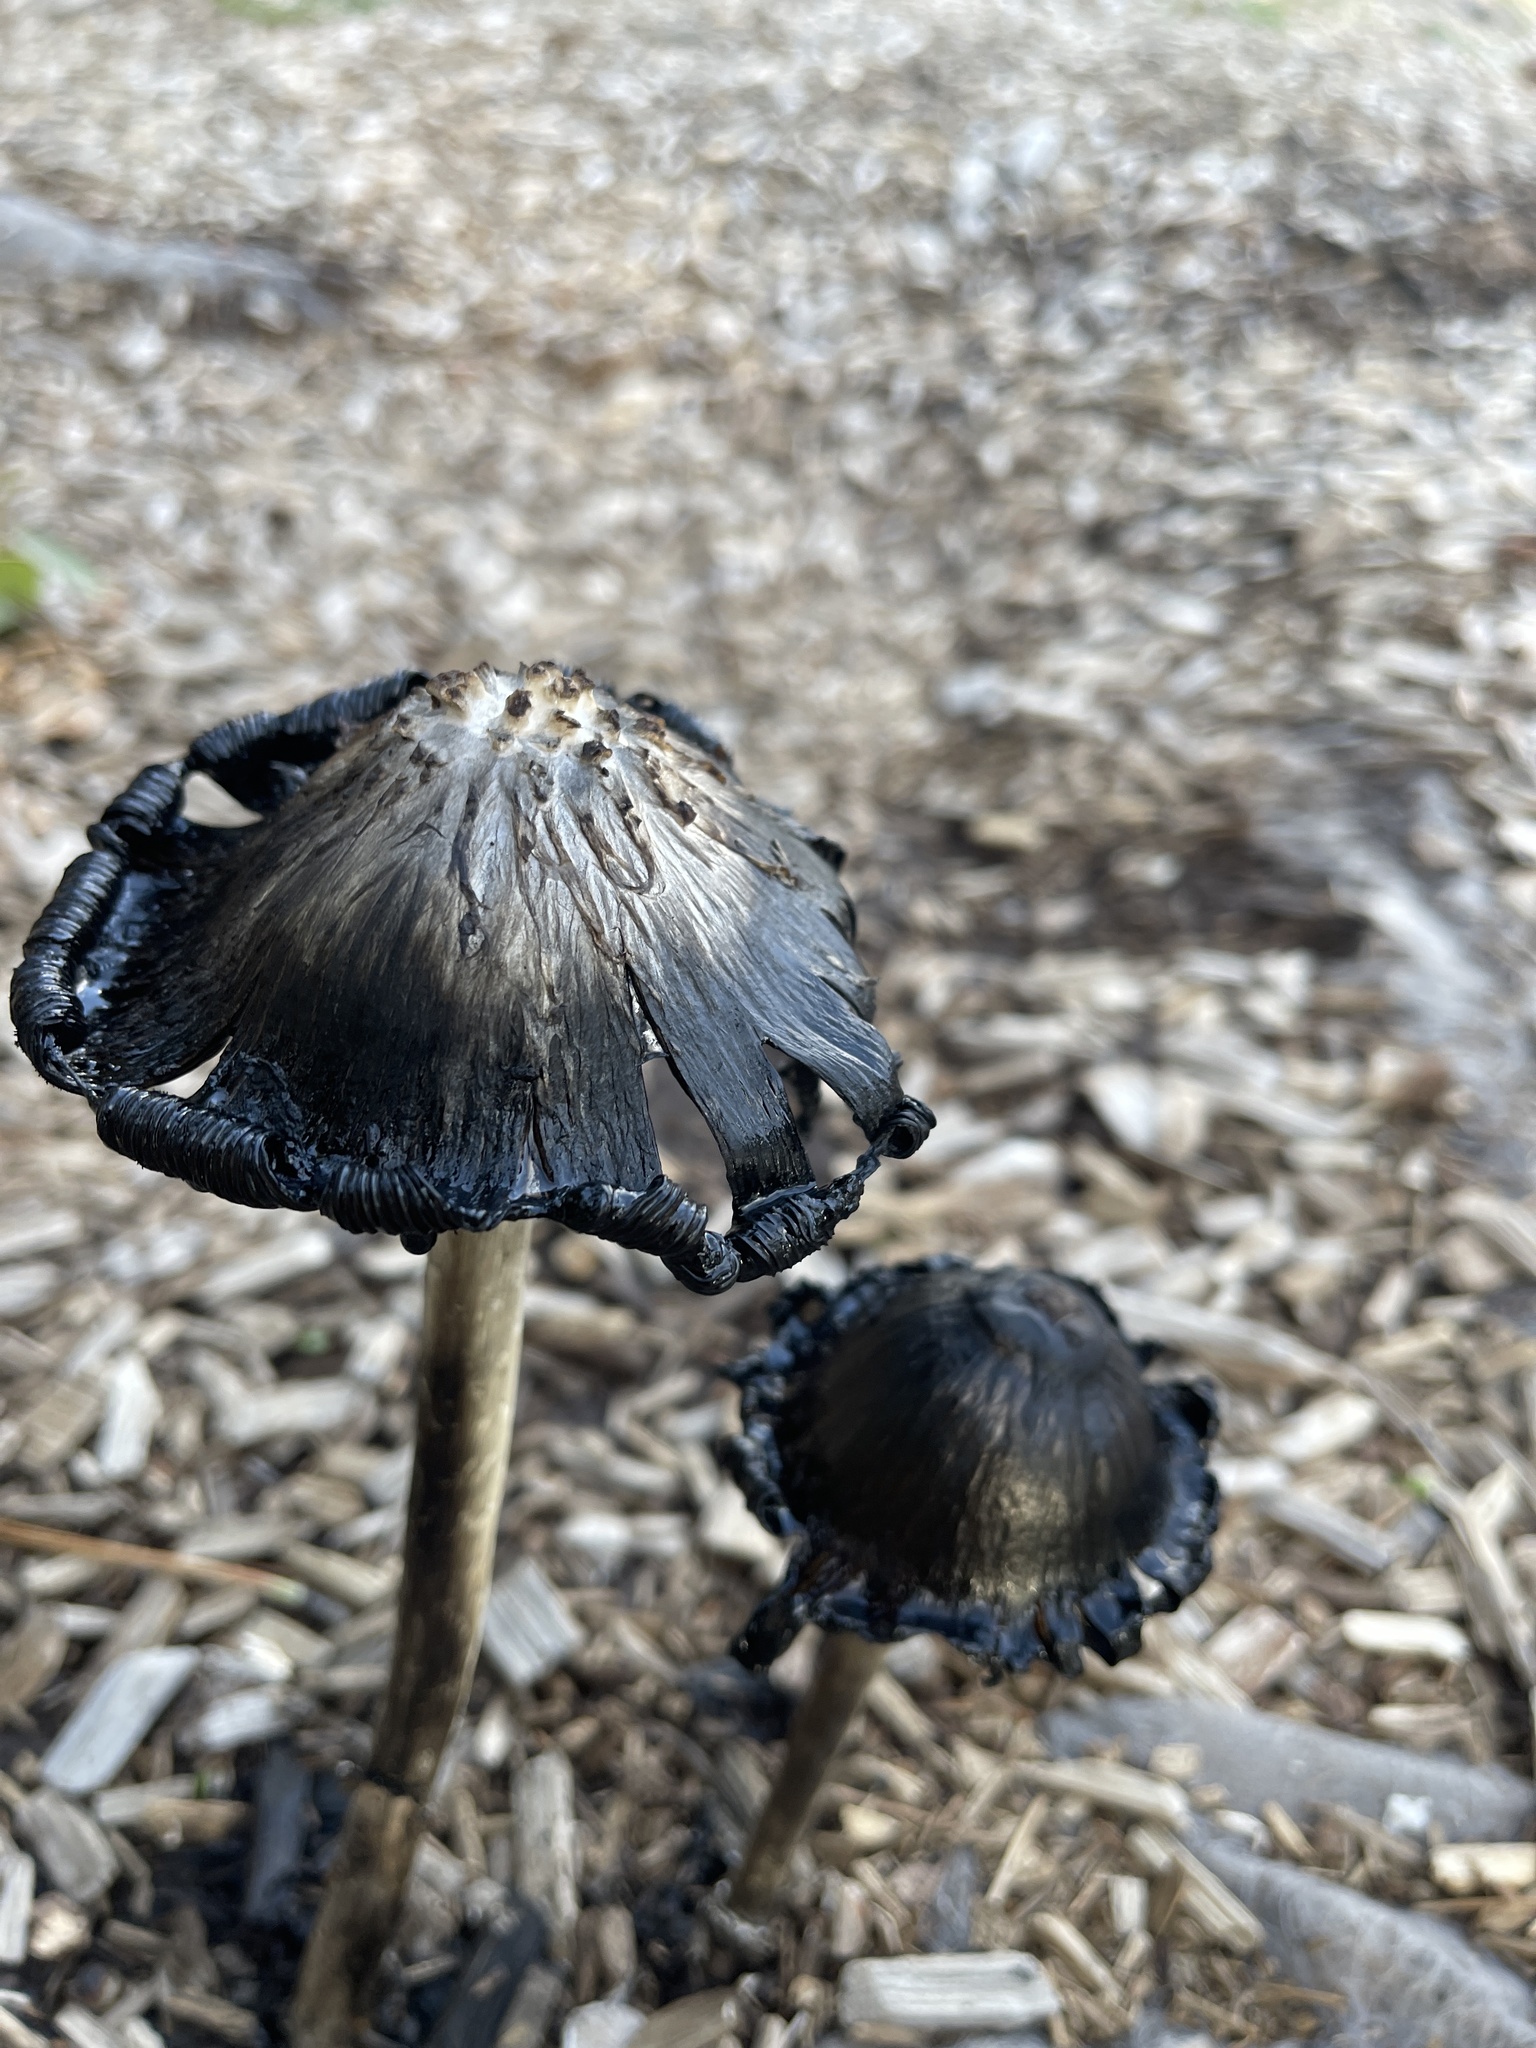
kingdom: Fungi
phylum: Basidiomycota
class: Agaricomycetes
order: Agaricales
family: Agaricaceae
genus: Coprinus
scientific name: Coprinus comatus
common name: Lawyer's wig
